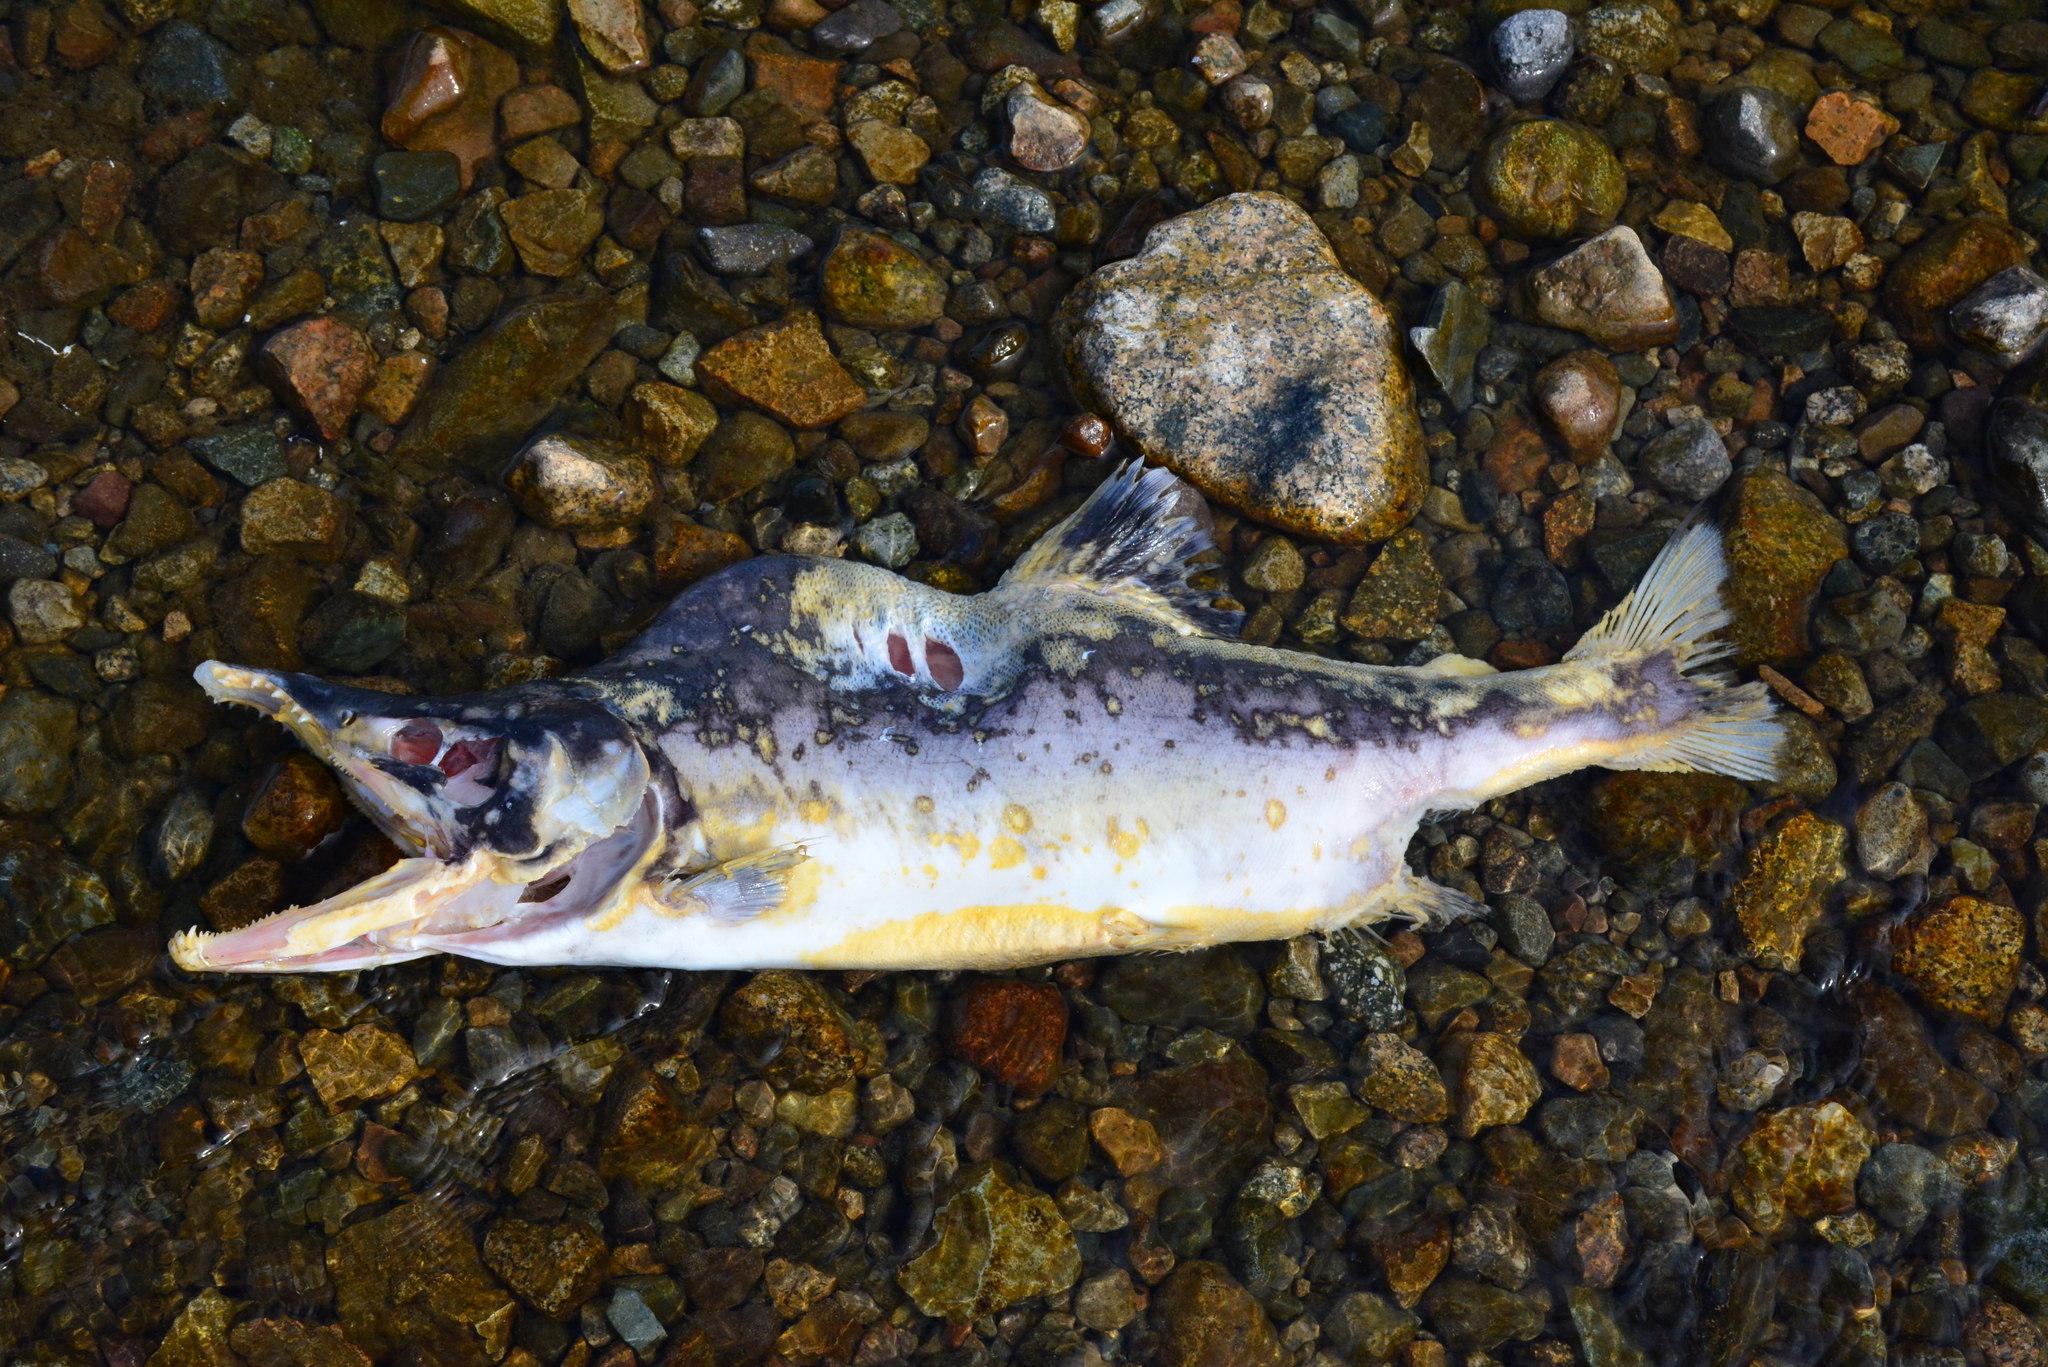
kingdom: Animalia
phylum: Chordata
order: Salmoniformes
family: Salmonidae
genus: Oncorhynchus
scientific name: Oncorhynchus gorbuscha
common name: Humpback salmon
